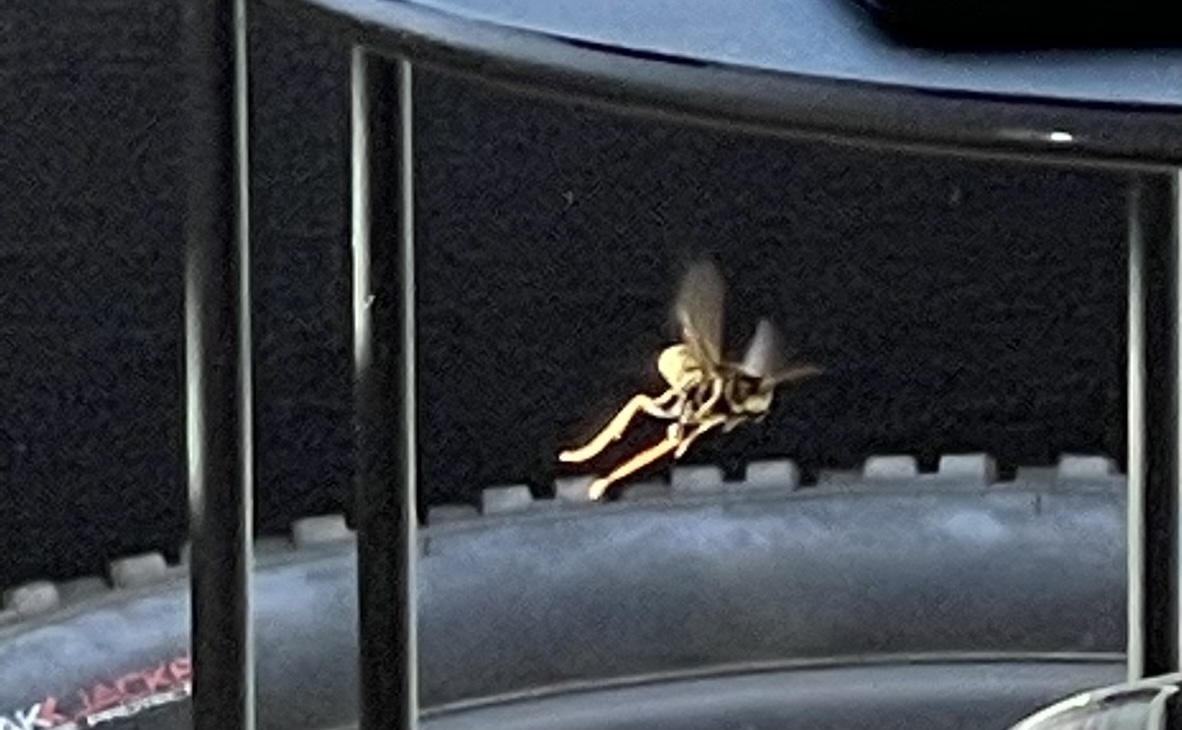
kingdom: Animalia
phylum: Arthropoda
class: Insecta
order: Hymenoptera
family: Eumenidae
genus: Polistes
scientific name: Polistes dominula
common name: Paper wasp
